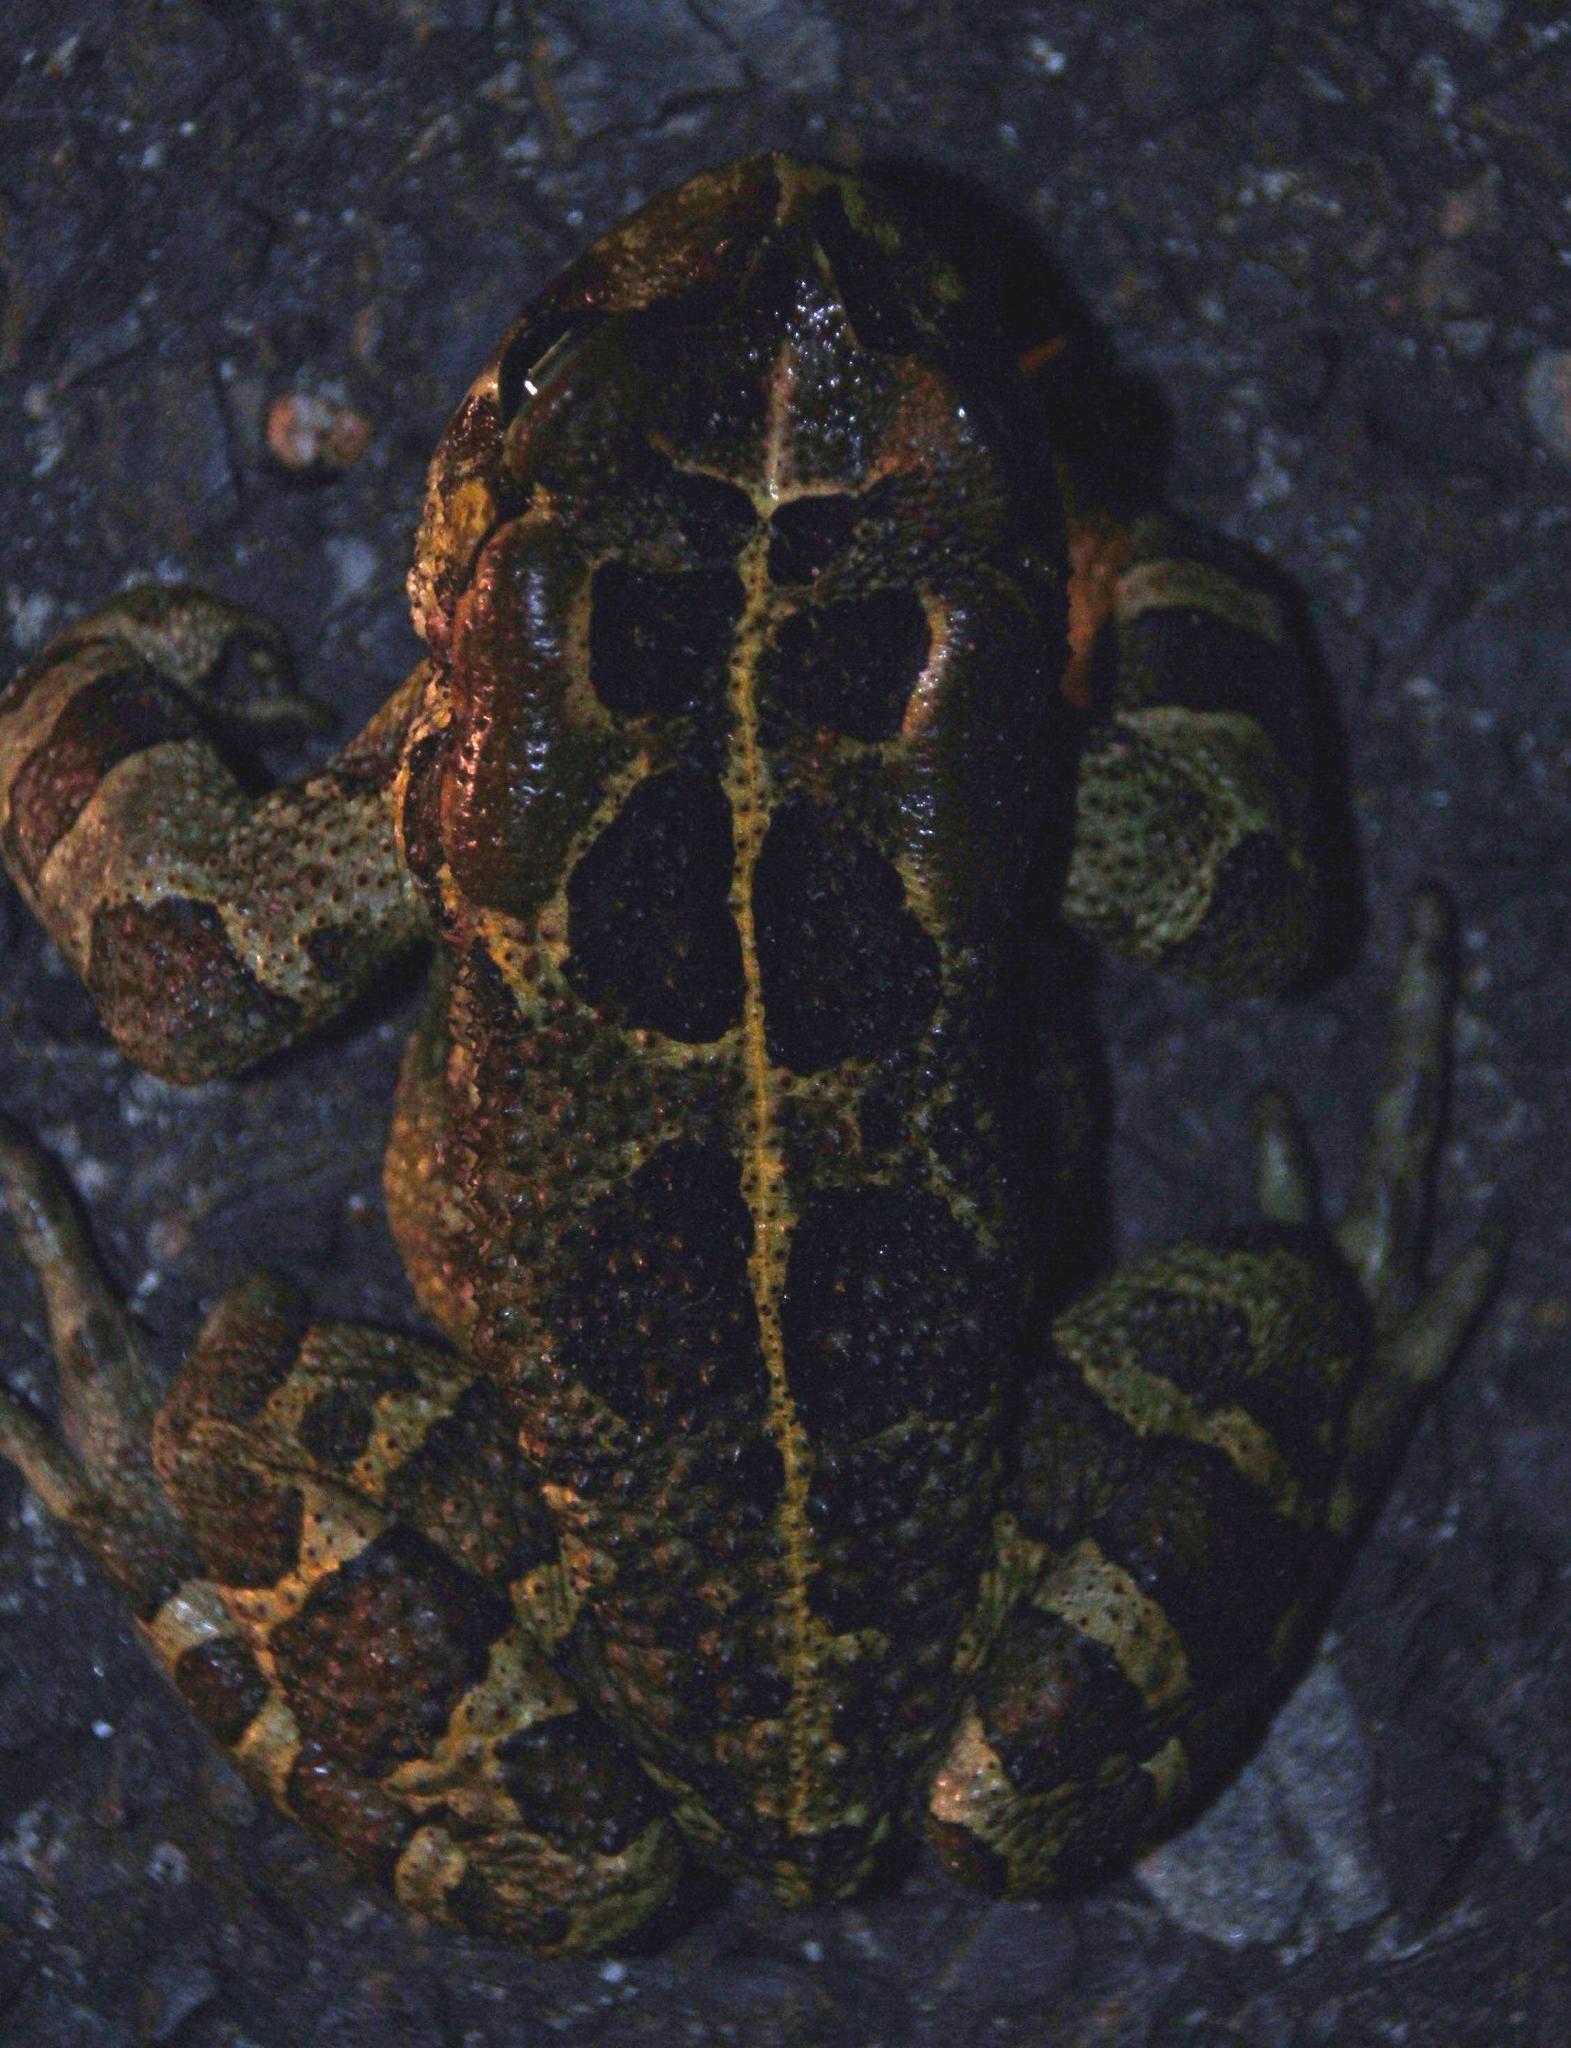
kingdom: Animalia
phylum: Chordata
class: Amphibia
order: Anura
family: Bufonidae
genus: Sclerophrys
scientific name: Sclerophrys pantherina
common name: Panther toad
